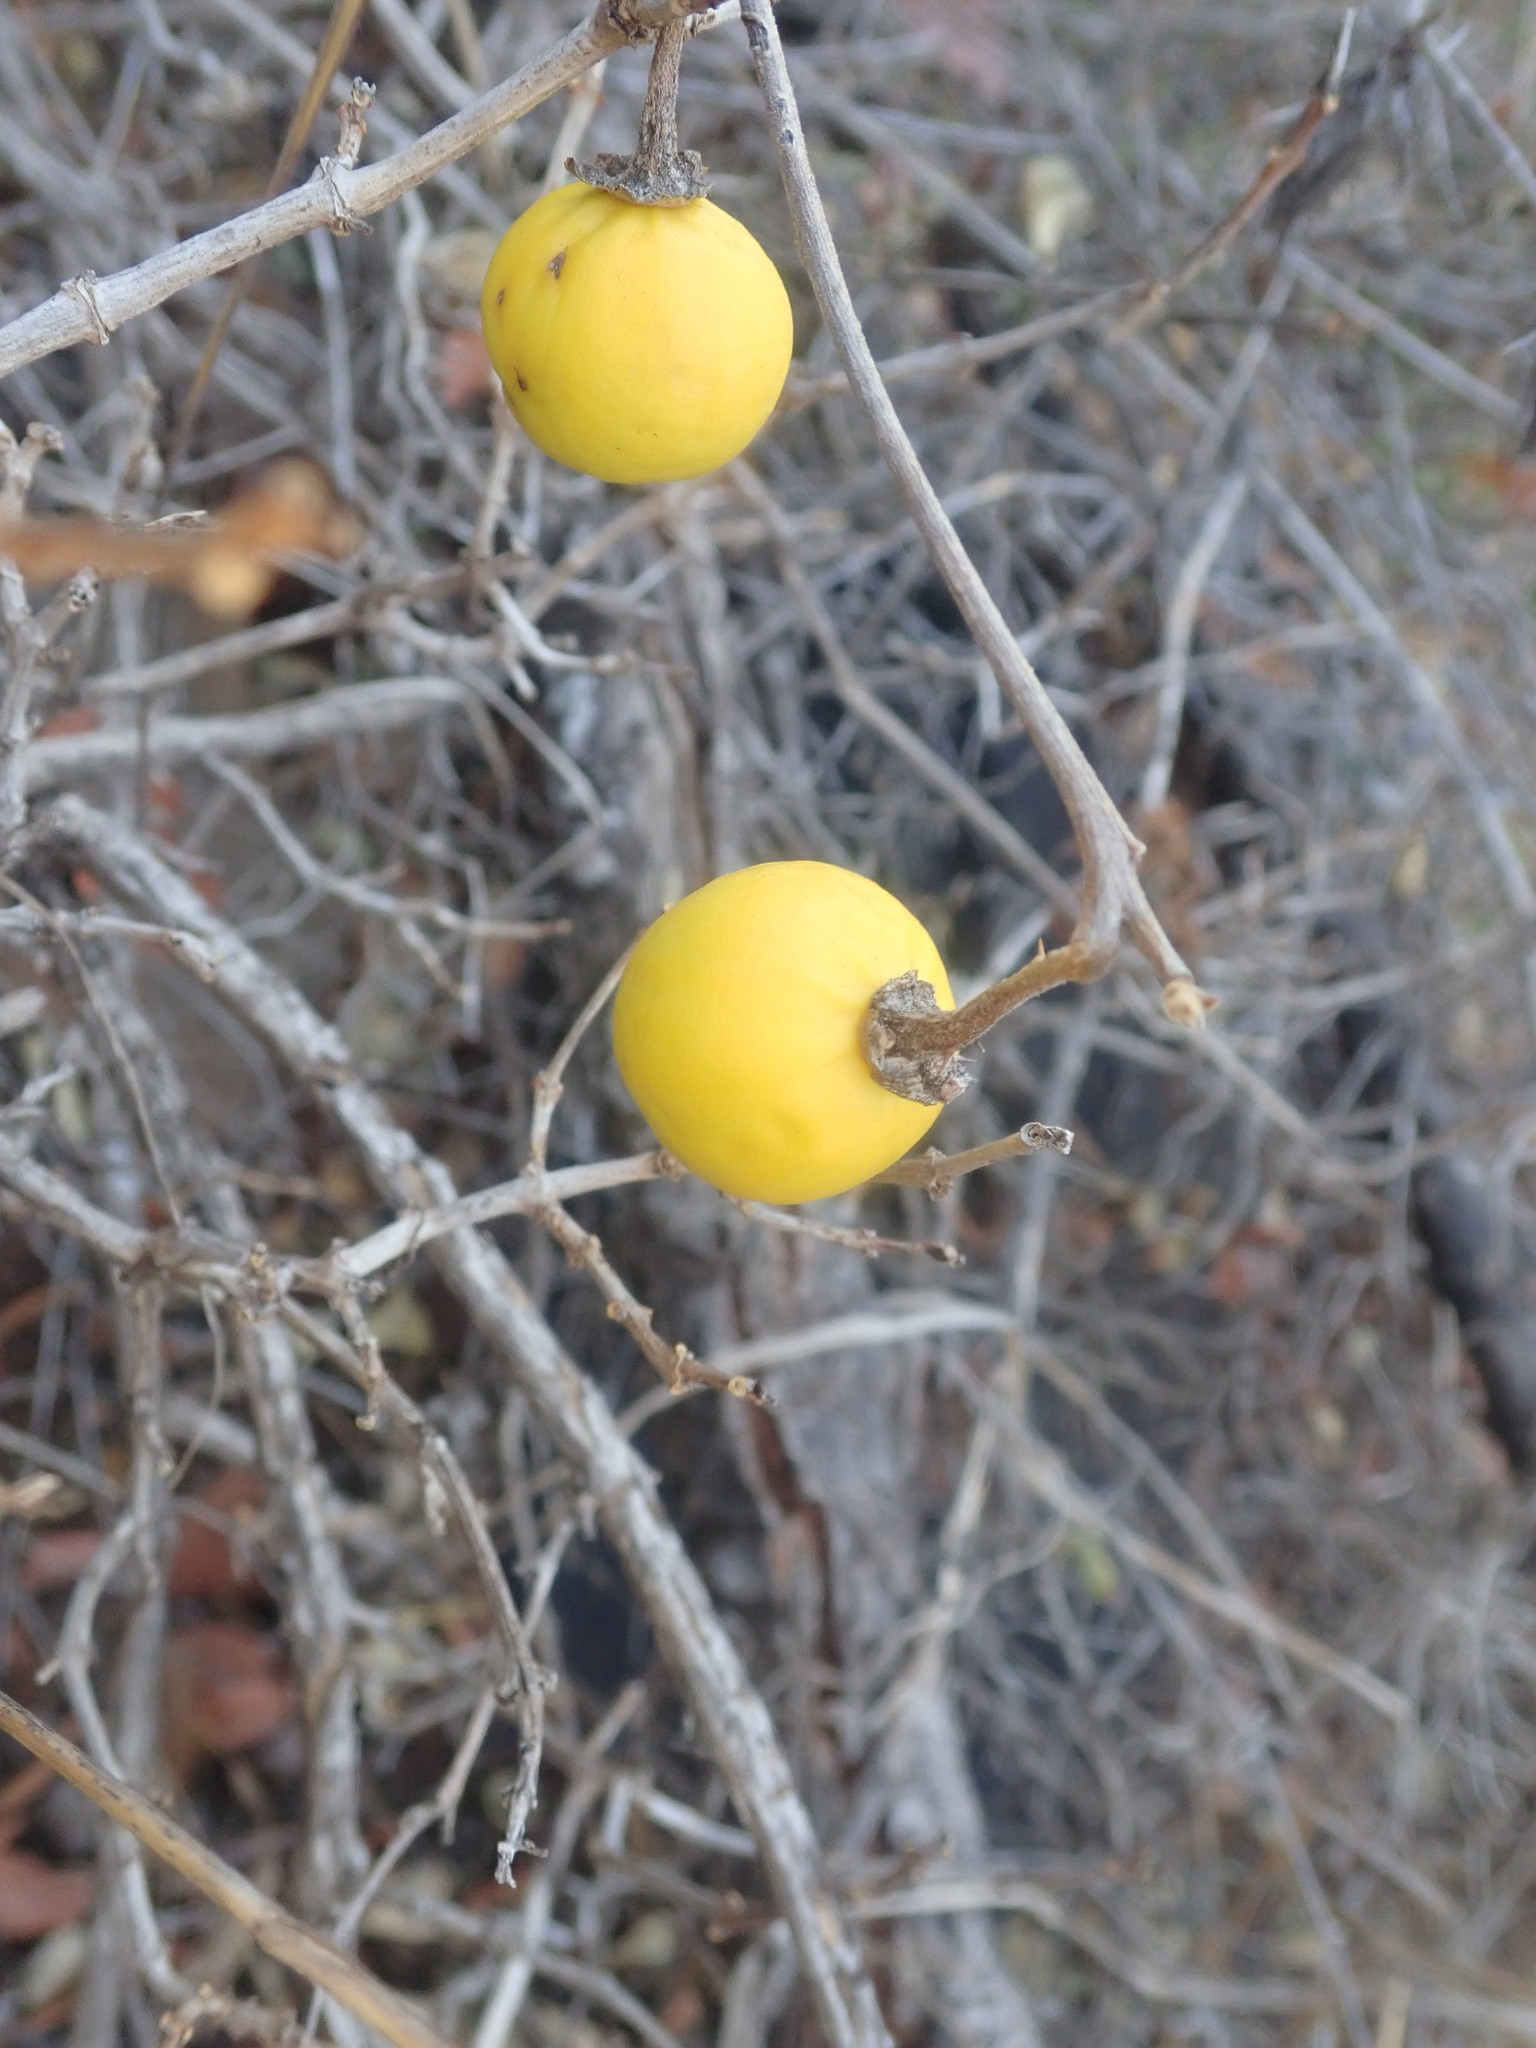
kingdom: Plantae
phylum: Tracheophyta
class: Magnoliopsida
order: Solanales
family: Solanaceae
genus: Solanum
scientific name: Solanum campylacanthum
